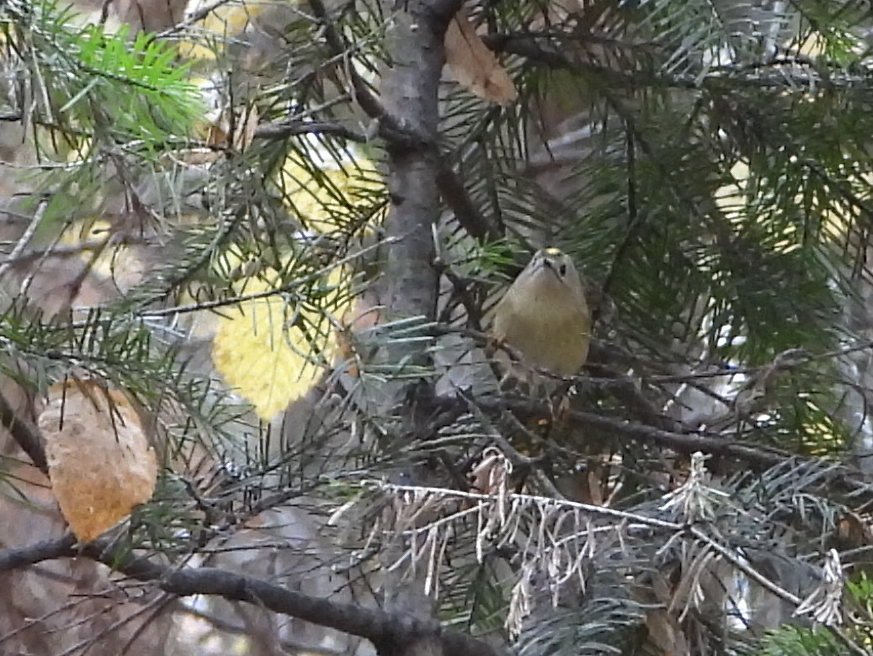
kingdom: Animalia
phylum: Chordata
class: Aves
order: Passeriformes
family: Regulidae
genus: Regulus
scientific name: Regulus regulus
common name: Goldcrest
